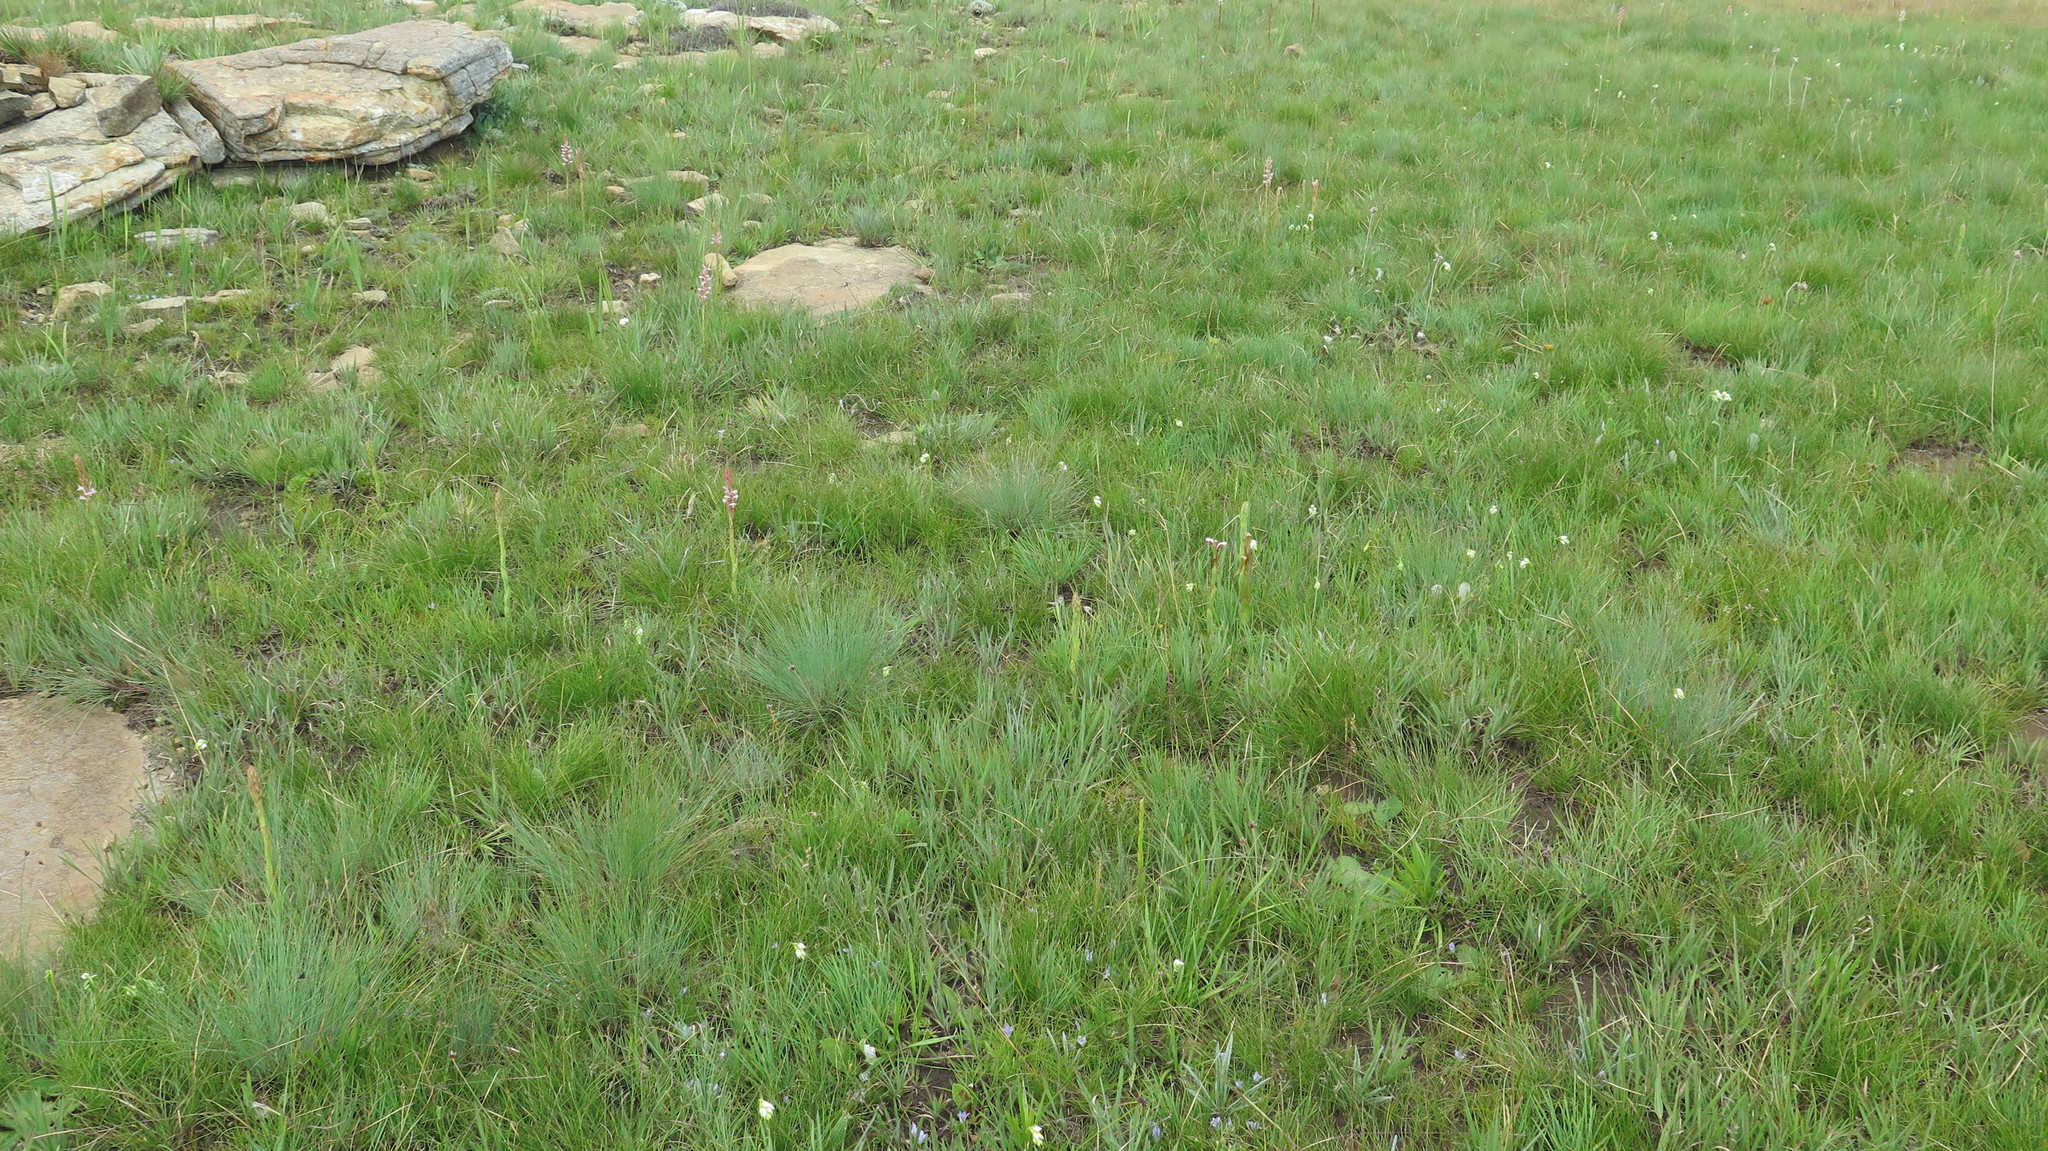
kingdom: Plantae
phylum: Tracheophyta
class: Liliopsida
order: Asparagales
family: Orchidaceae
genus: Schizochilus
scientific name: Schizochilus flexuosus
